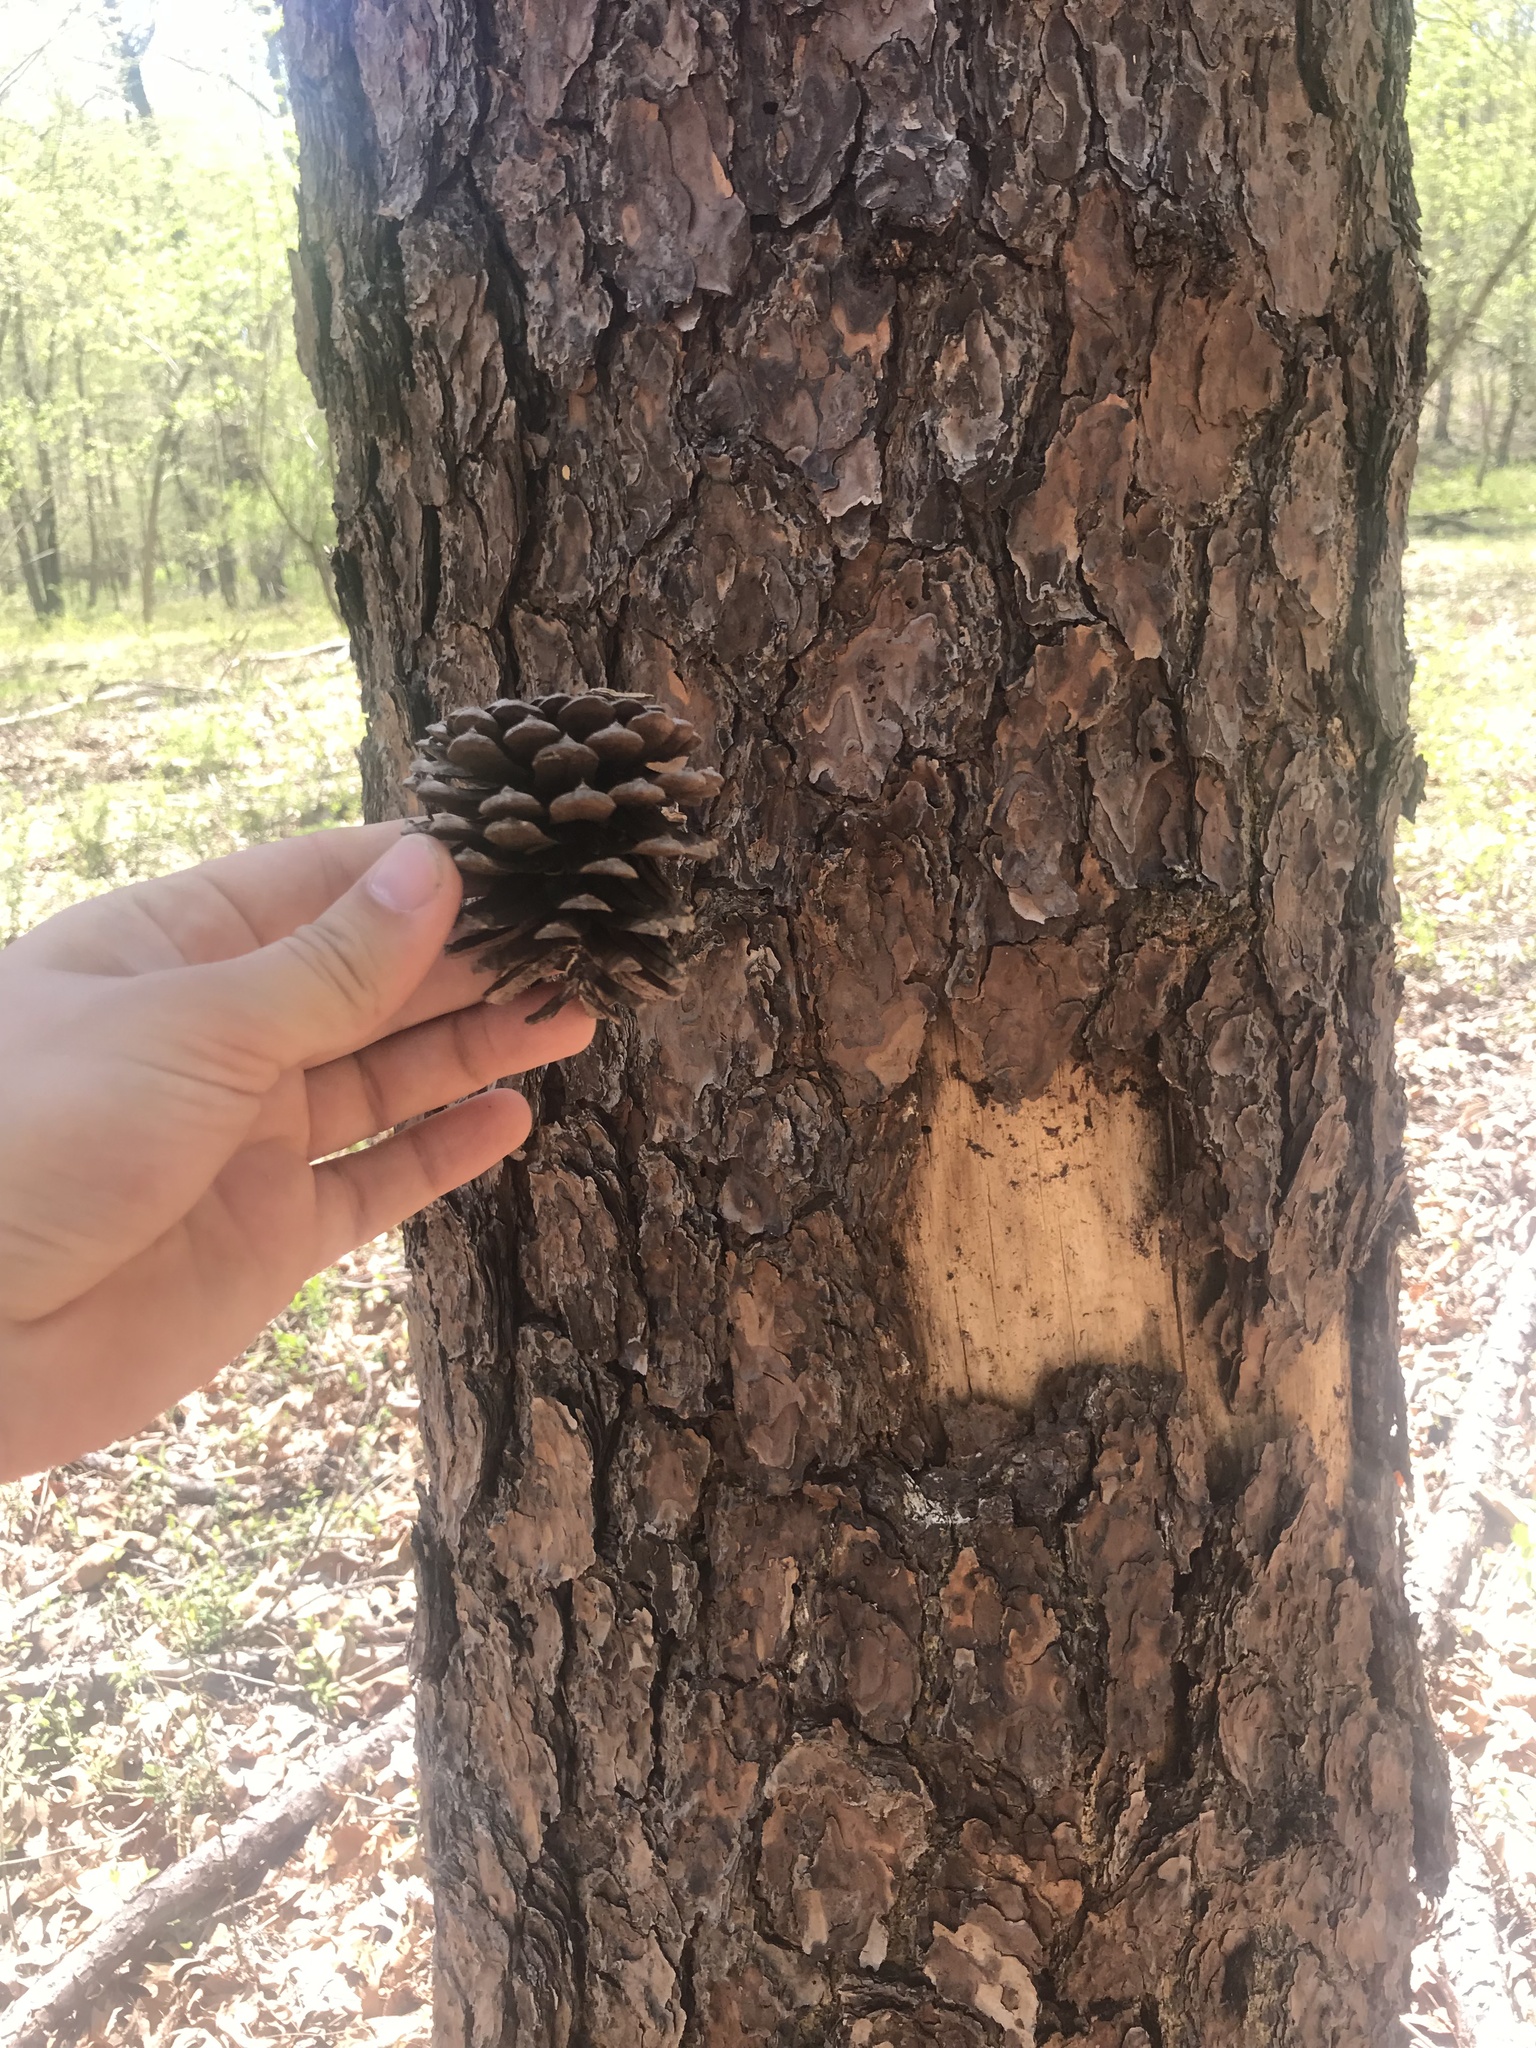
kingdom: Plantae
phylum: Tracheophyta
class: Pinopsida
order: Pinales
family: Pinaceae
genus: Pinus
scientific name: Pinus rigida
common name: Pitch pine
